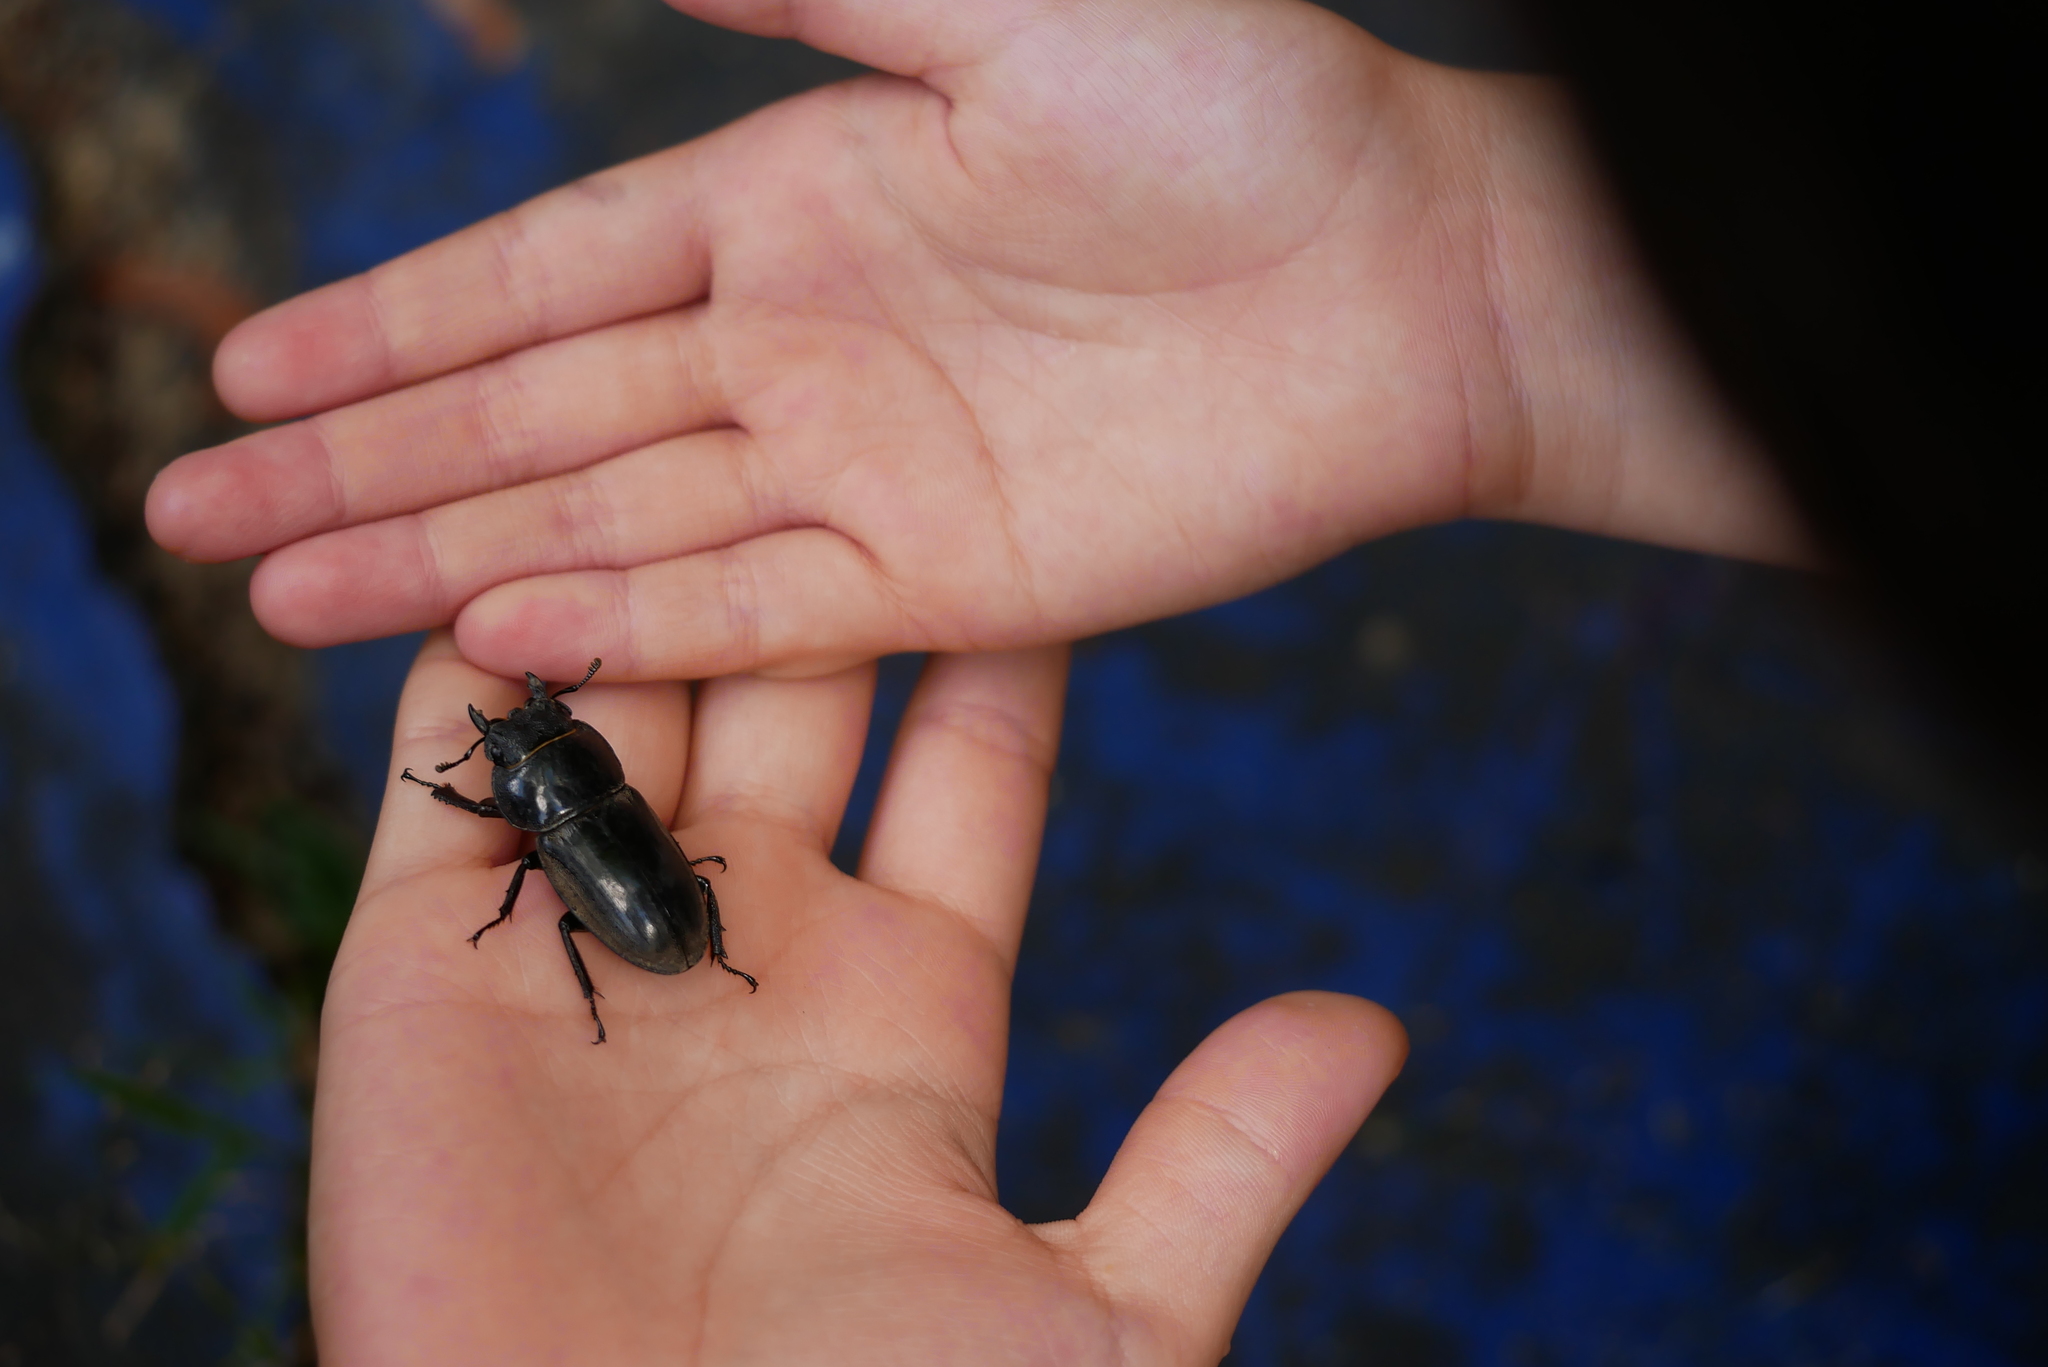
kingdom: Animalia
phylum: Arthropoda
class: Insecta
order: Coleoptera
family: Lucanidae
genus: Serrognathus
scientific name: Serrognathus titanus
